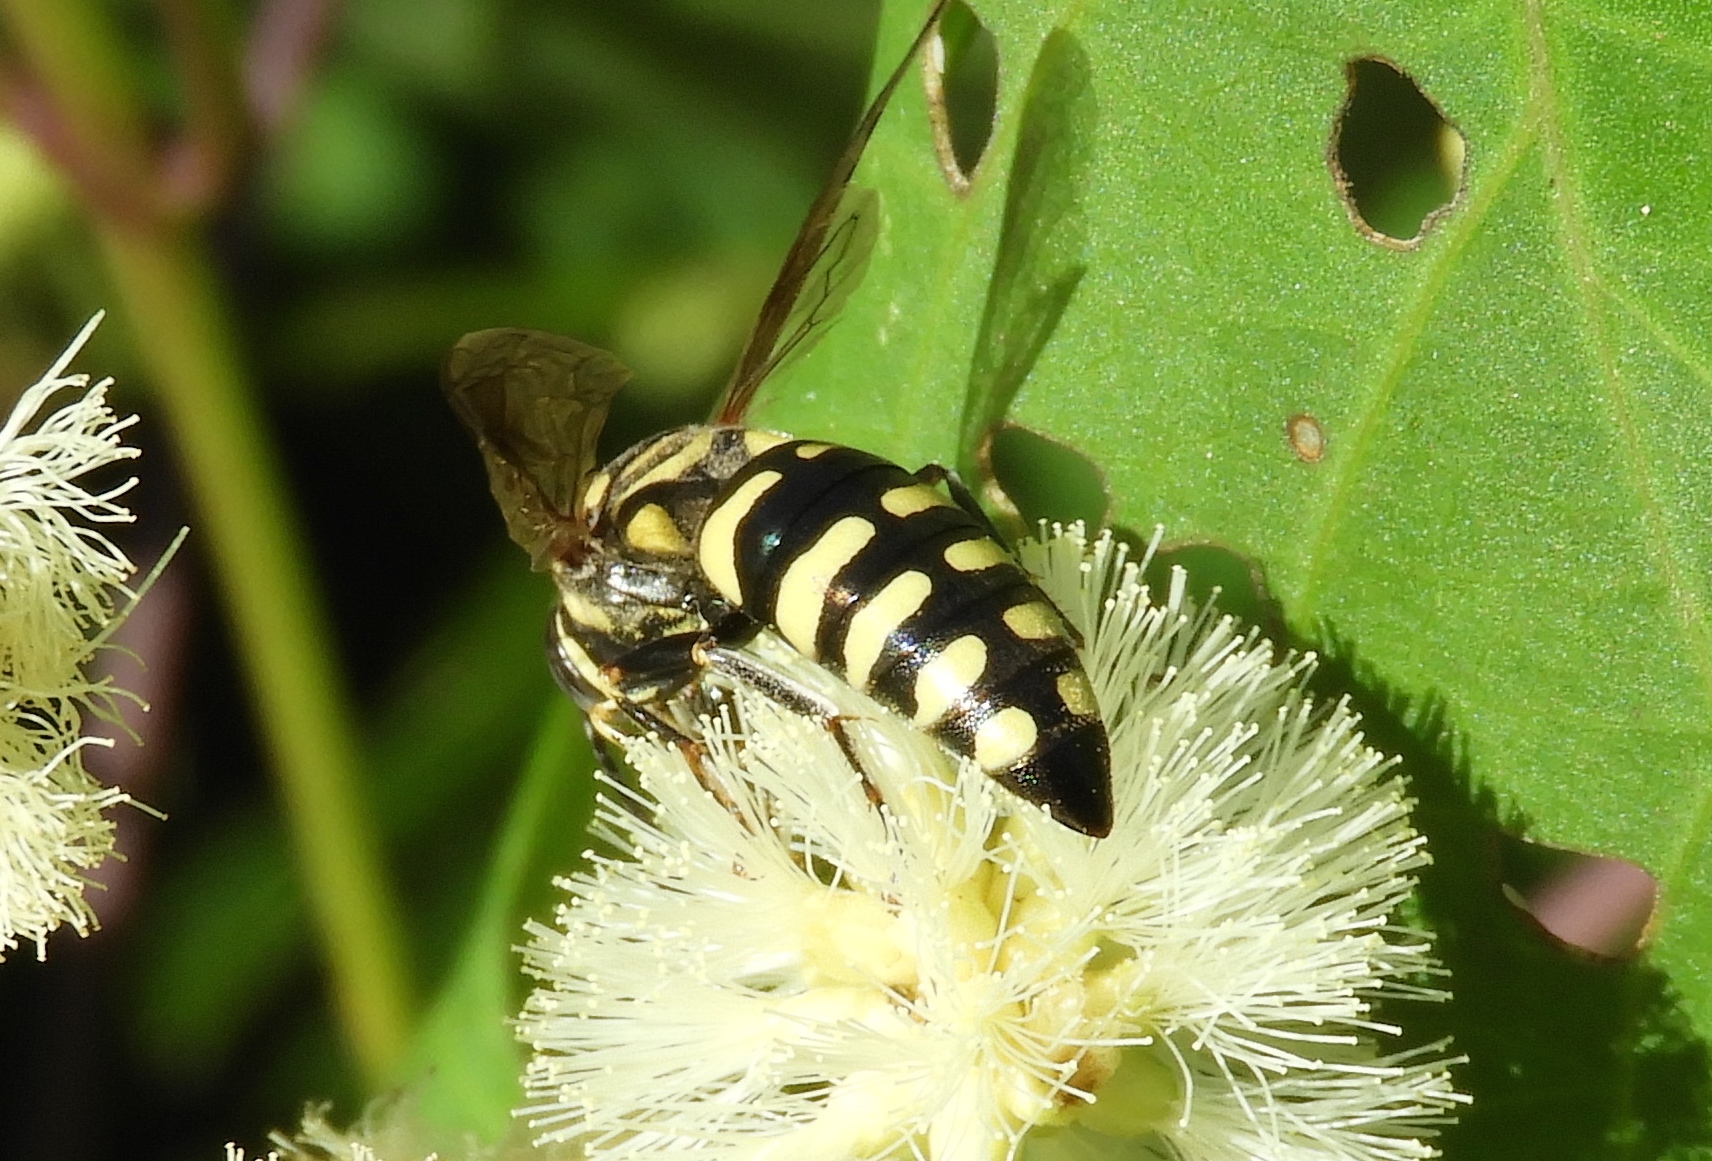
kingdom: Animalia
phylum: Arthropoda
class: Insecta
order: Hymenoptera
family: Crabronidae
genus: Bicyrtes
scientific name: Bicyrtes viduatus
